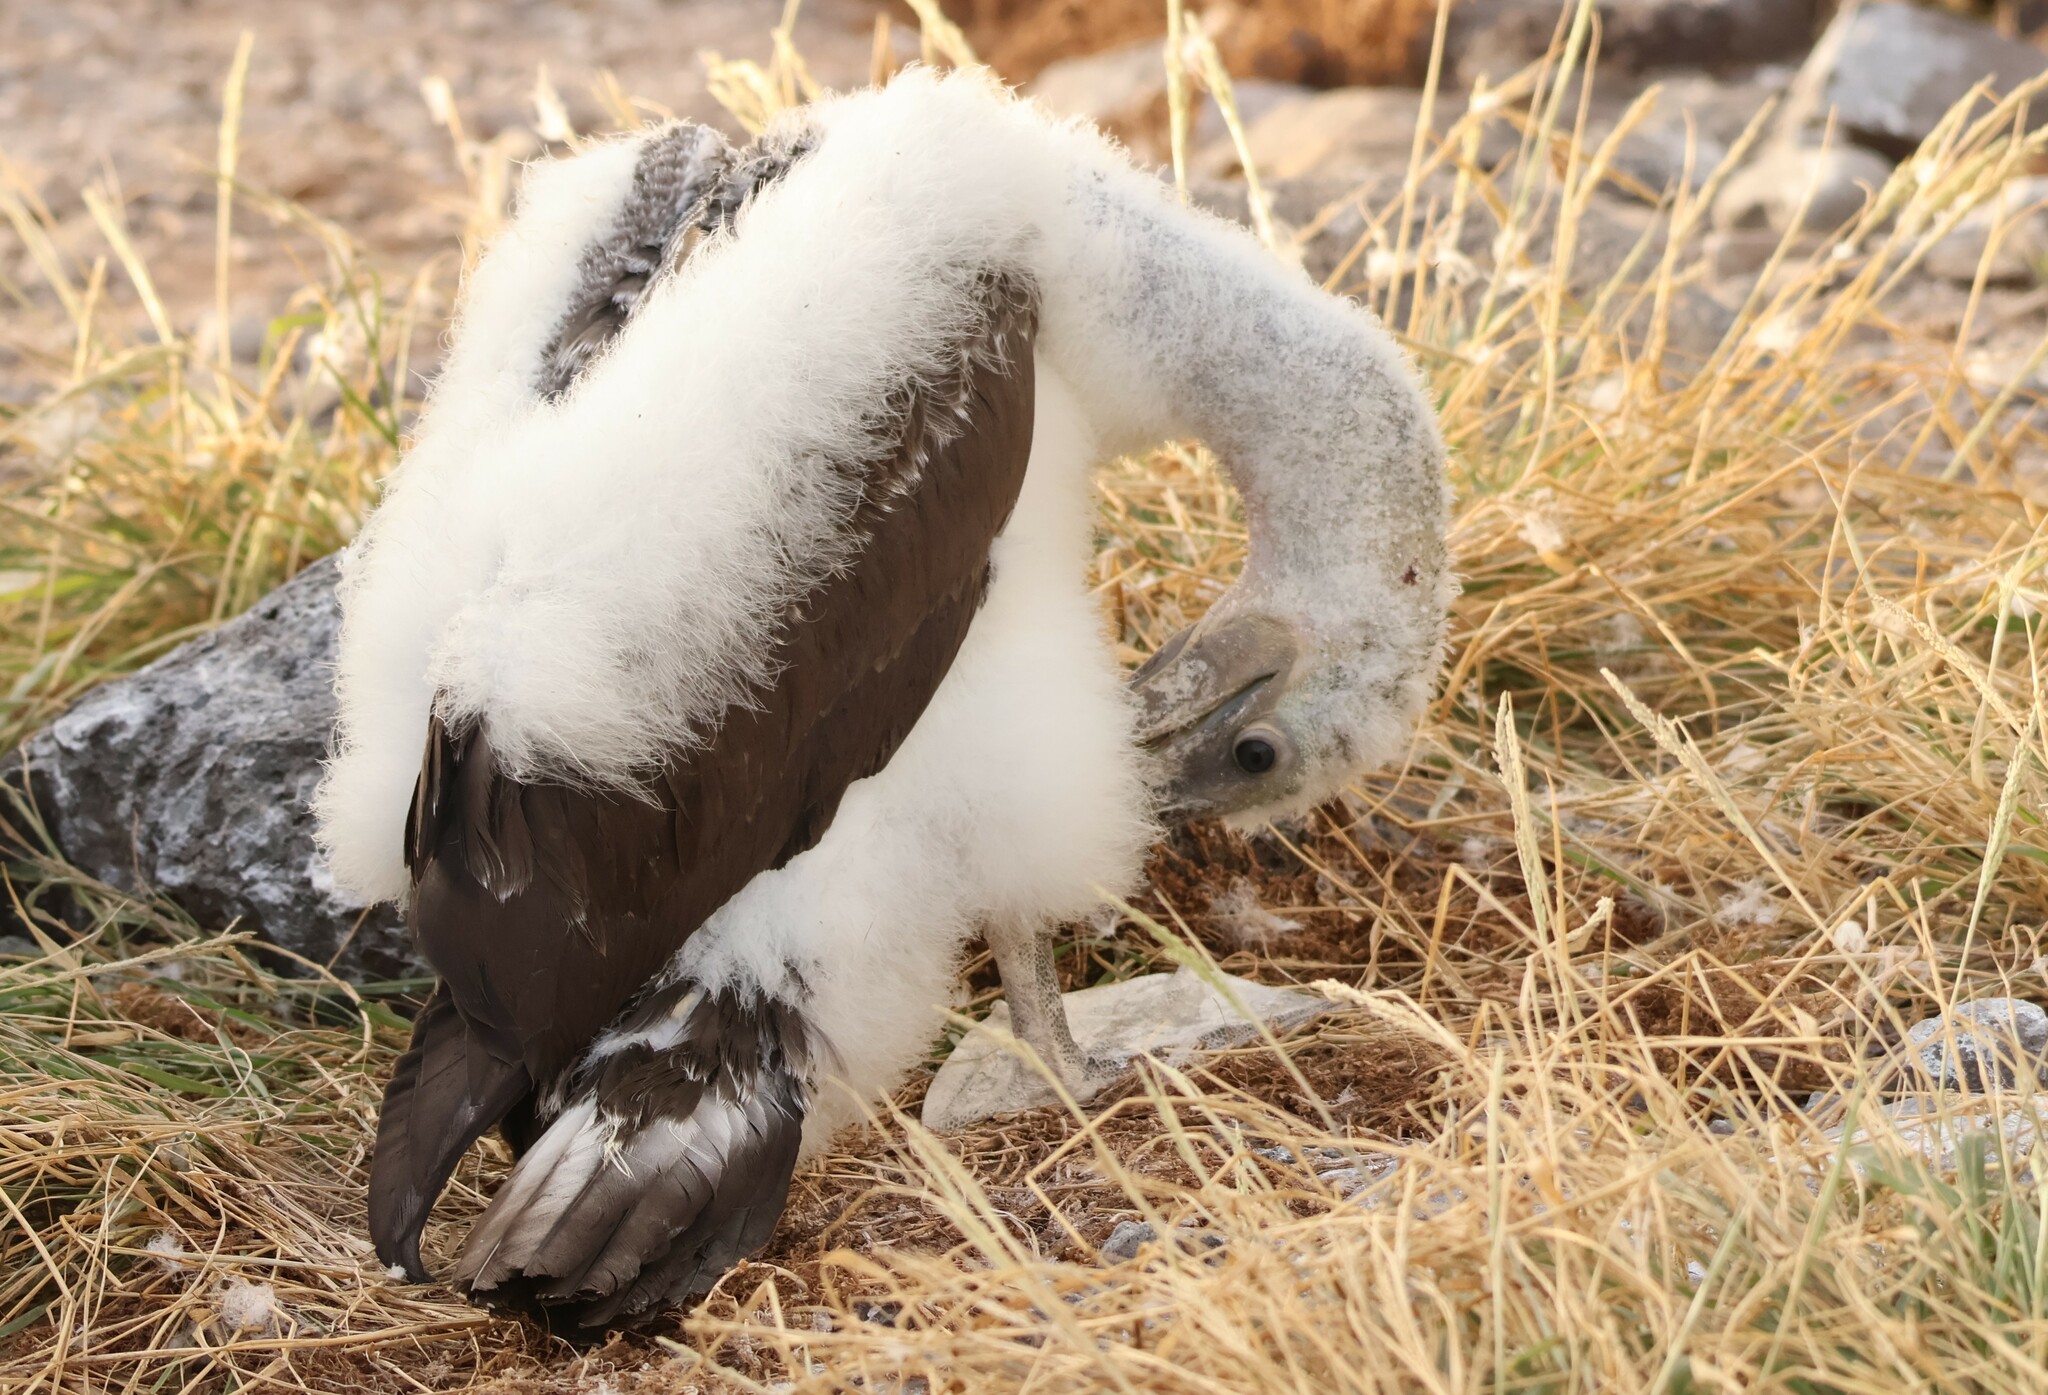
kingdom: Animalia
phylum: Chordata
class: Aves
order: Suliformes
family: Sulidae
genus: Sula
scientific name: Sula granti
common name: Nazca booby
